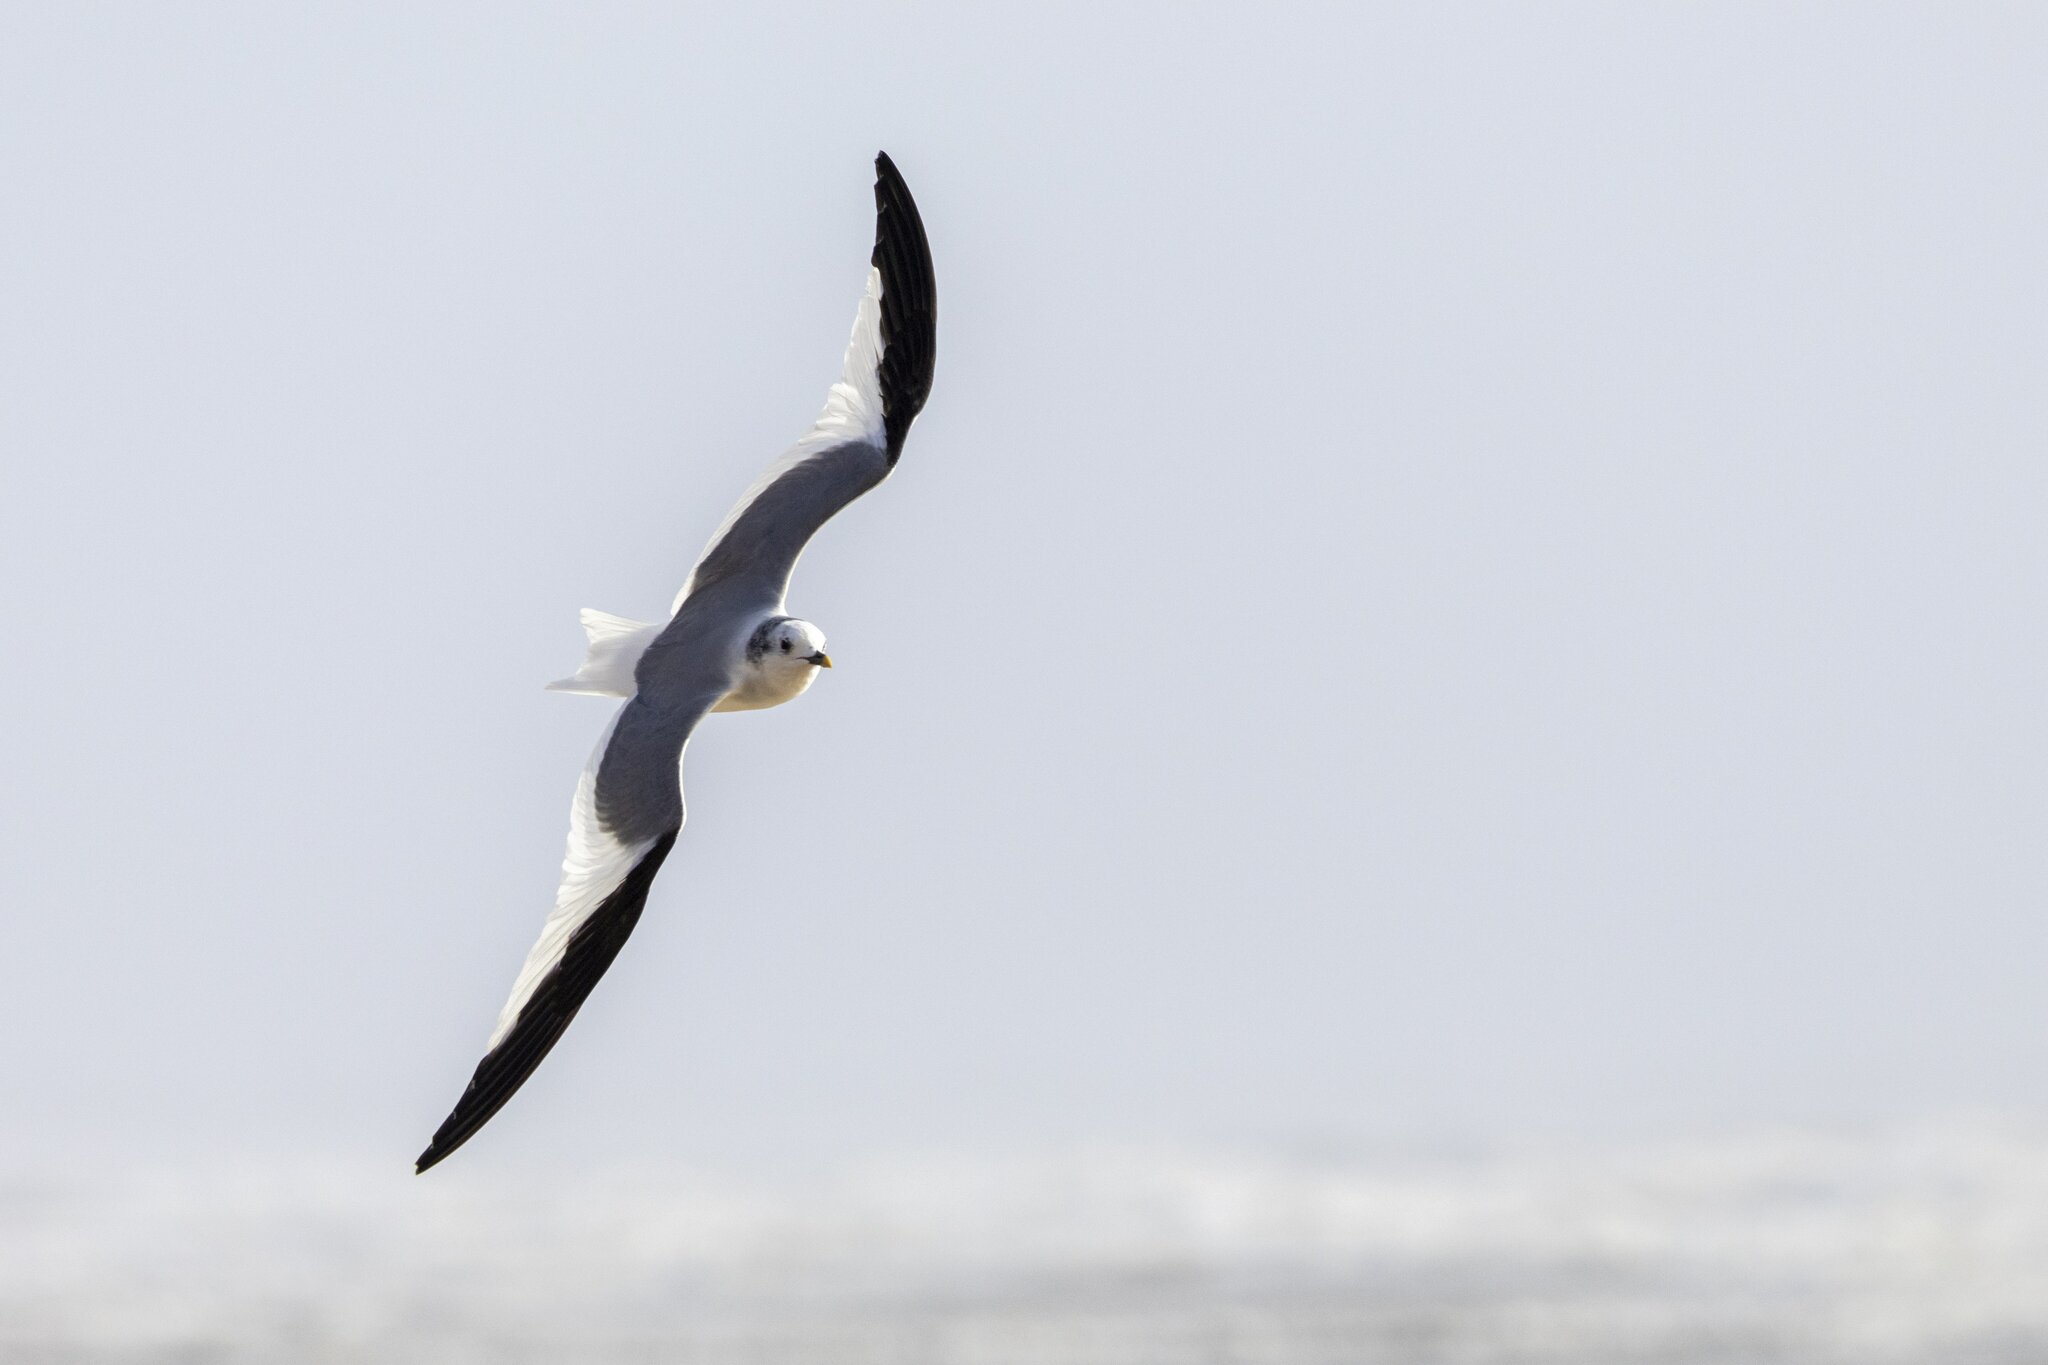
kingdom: Animalia
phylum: Chordata
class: Aves
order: Charadriiformes
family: Laridae
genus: Xema
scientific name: Xema sabini
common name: Sabine's gull
